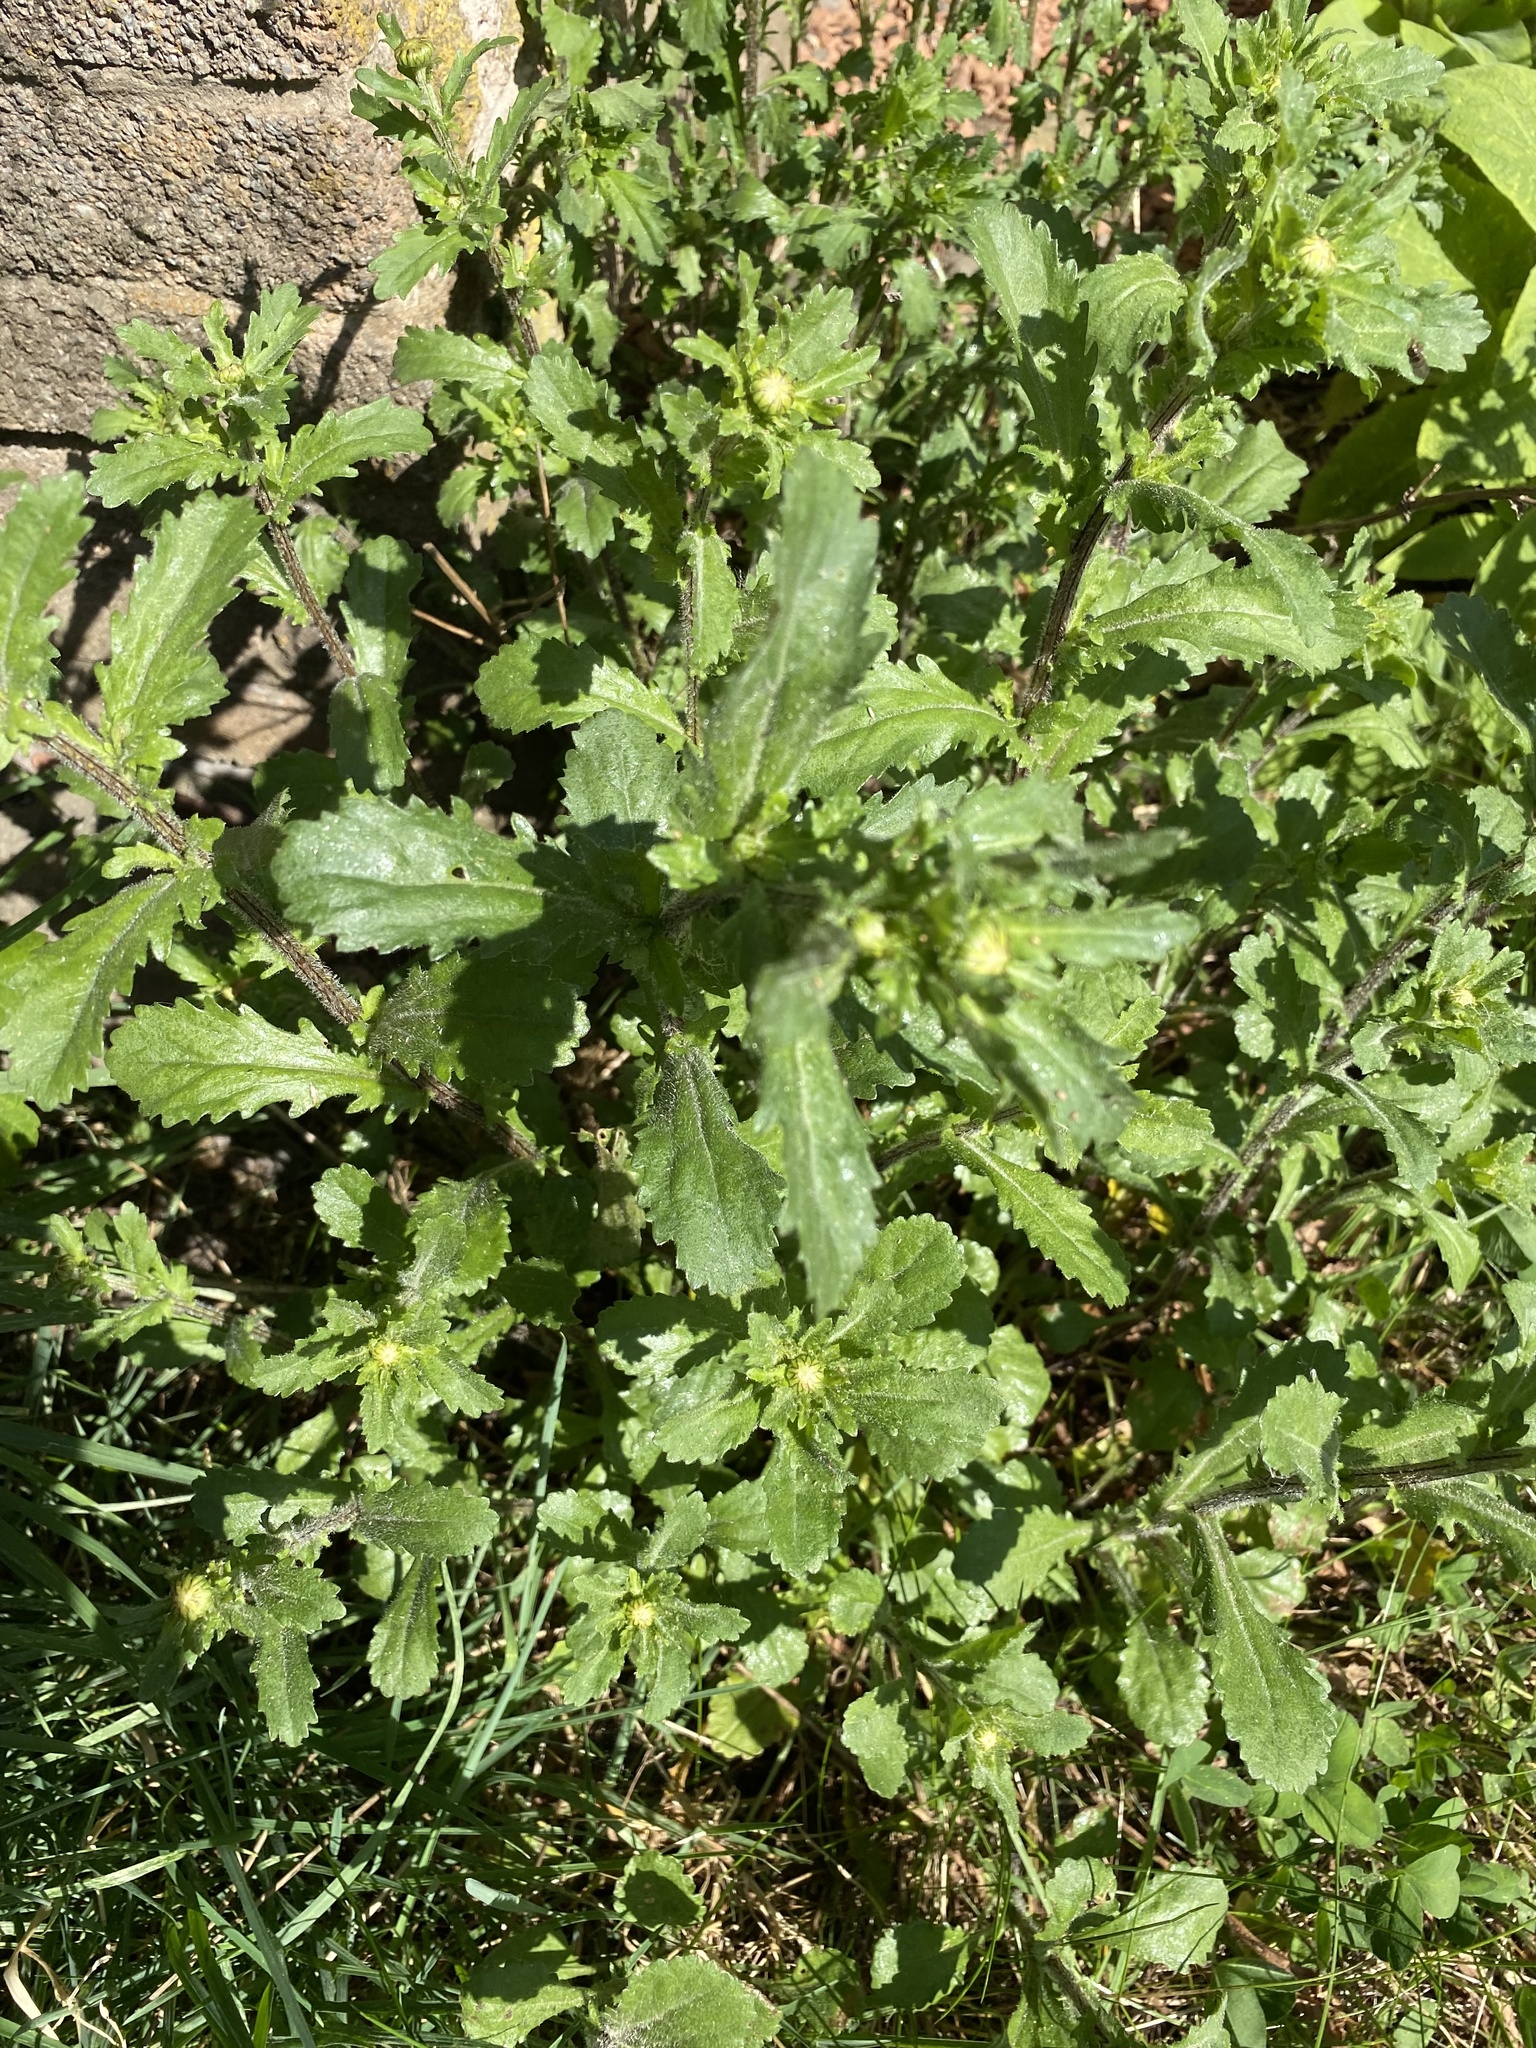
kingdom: Plantae
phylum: Tracheophyta
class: Magnoliopsida
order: Asterales
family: Asteraceae
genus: Leucanthemum
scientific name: Leucanthemum vulgare
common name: Oxeye daisy
